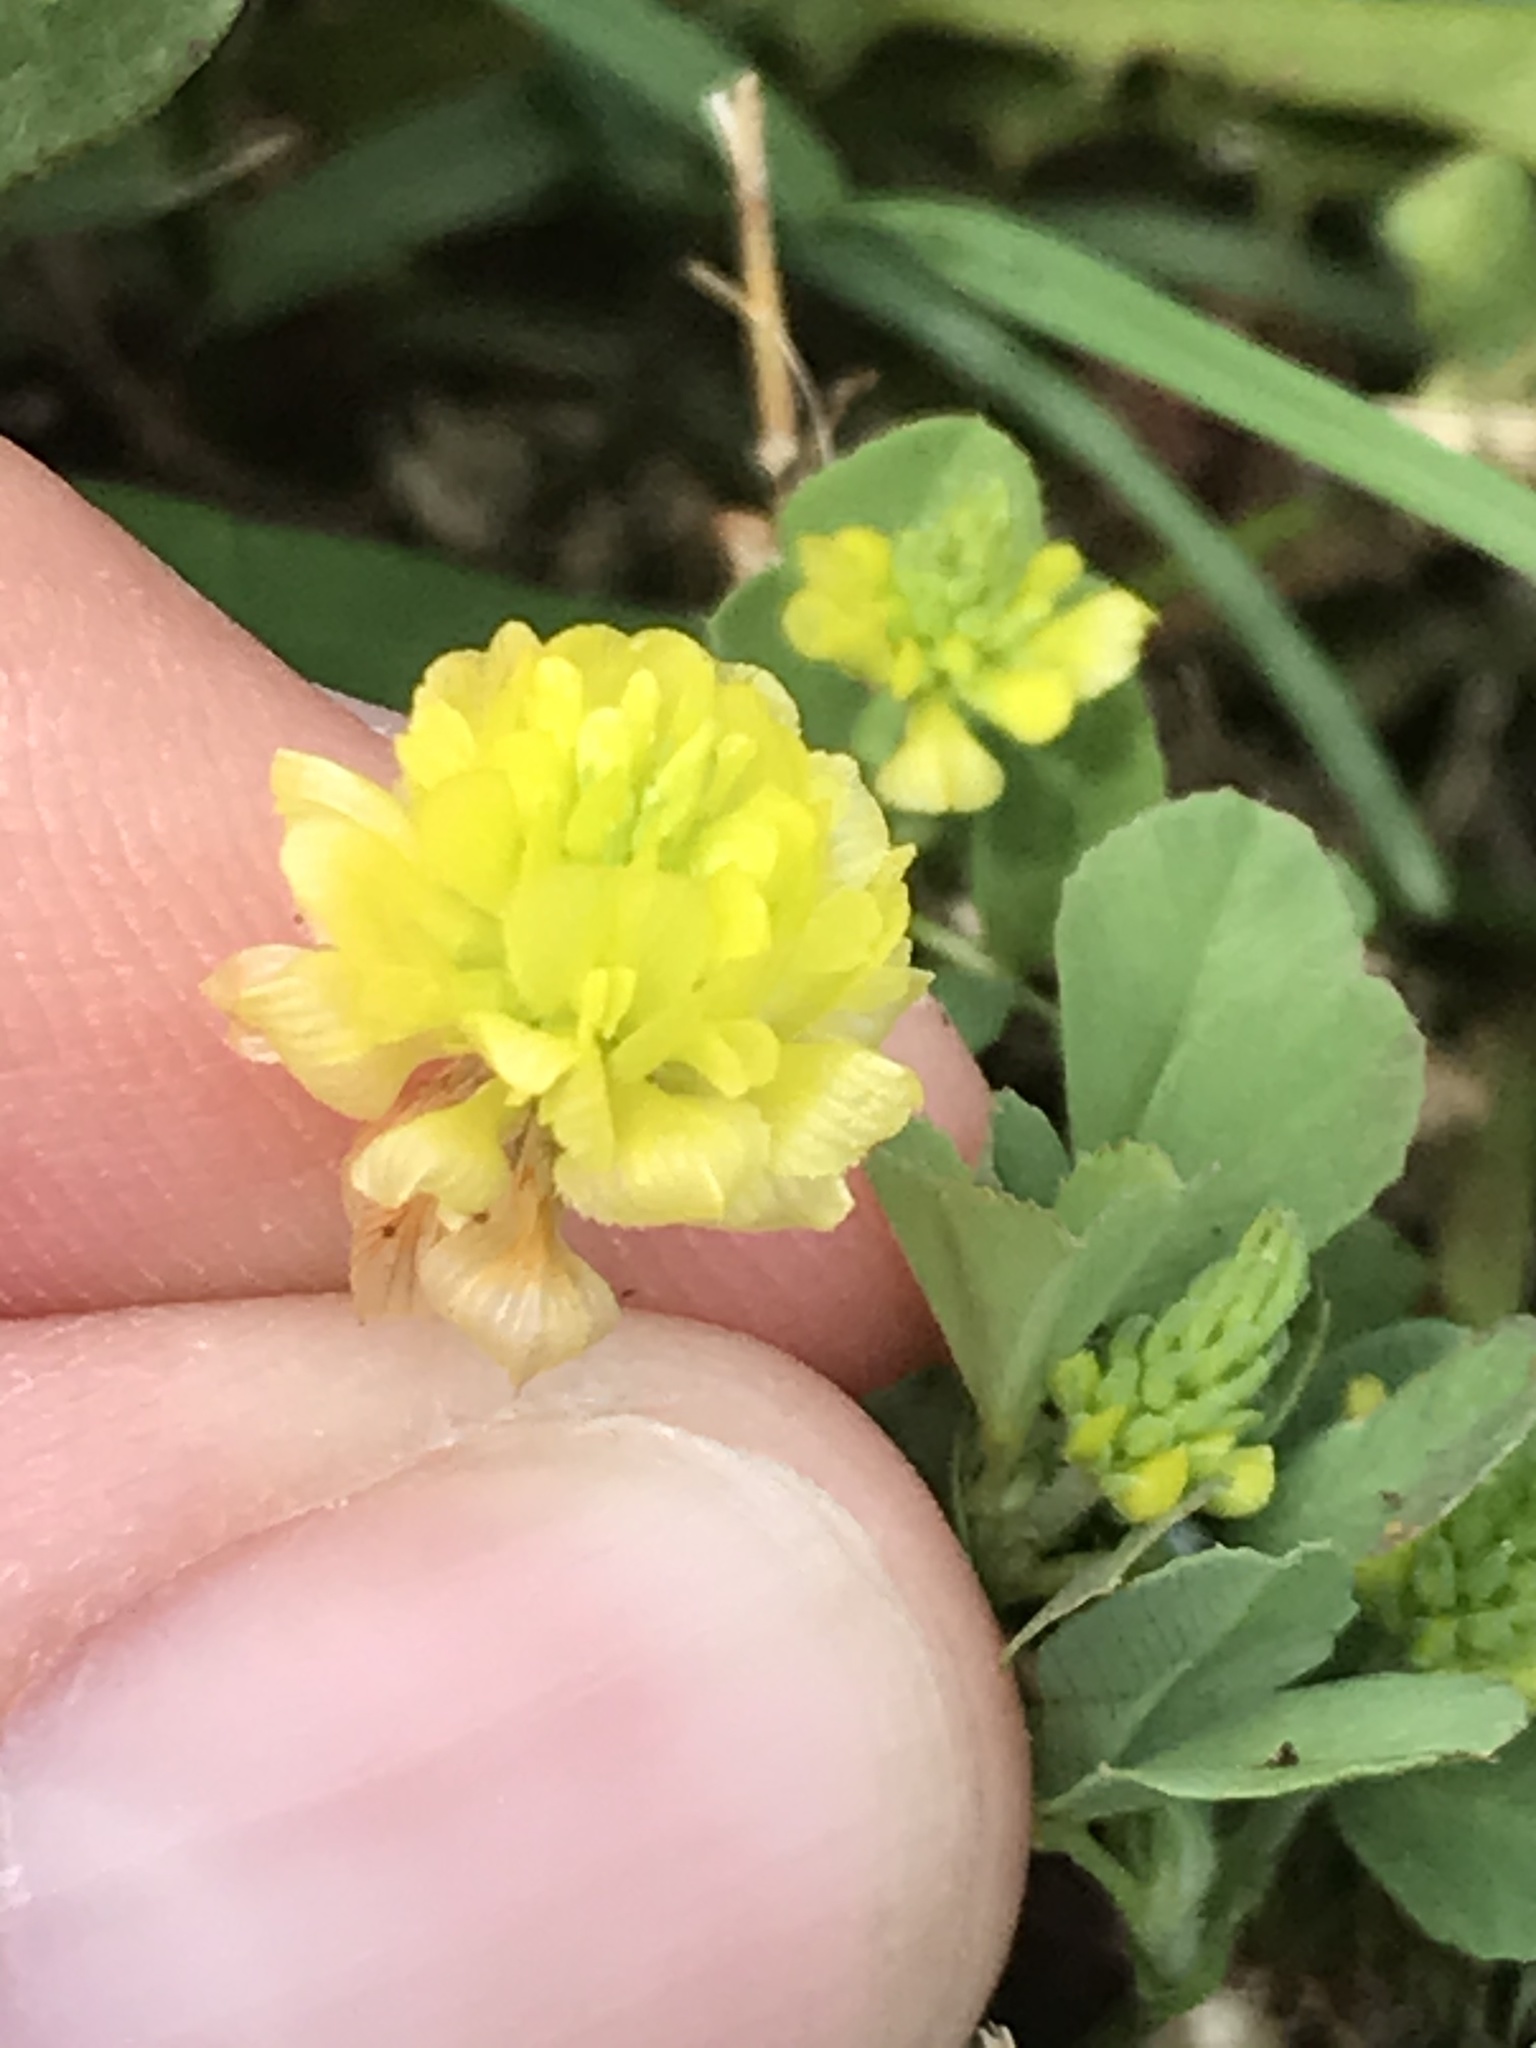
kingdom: Plantae
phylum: Tracheophyta
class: Magnoliopsida
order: Fabales
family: Fabaceae
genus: Trifolium
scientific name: Trifolium campestre
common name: Field clover
